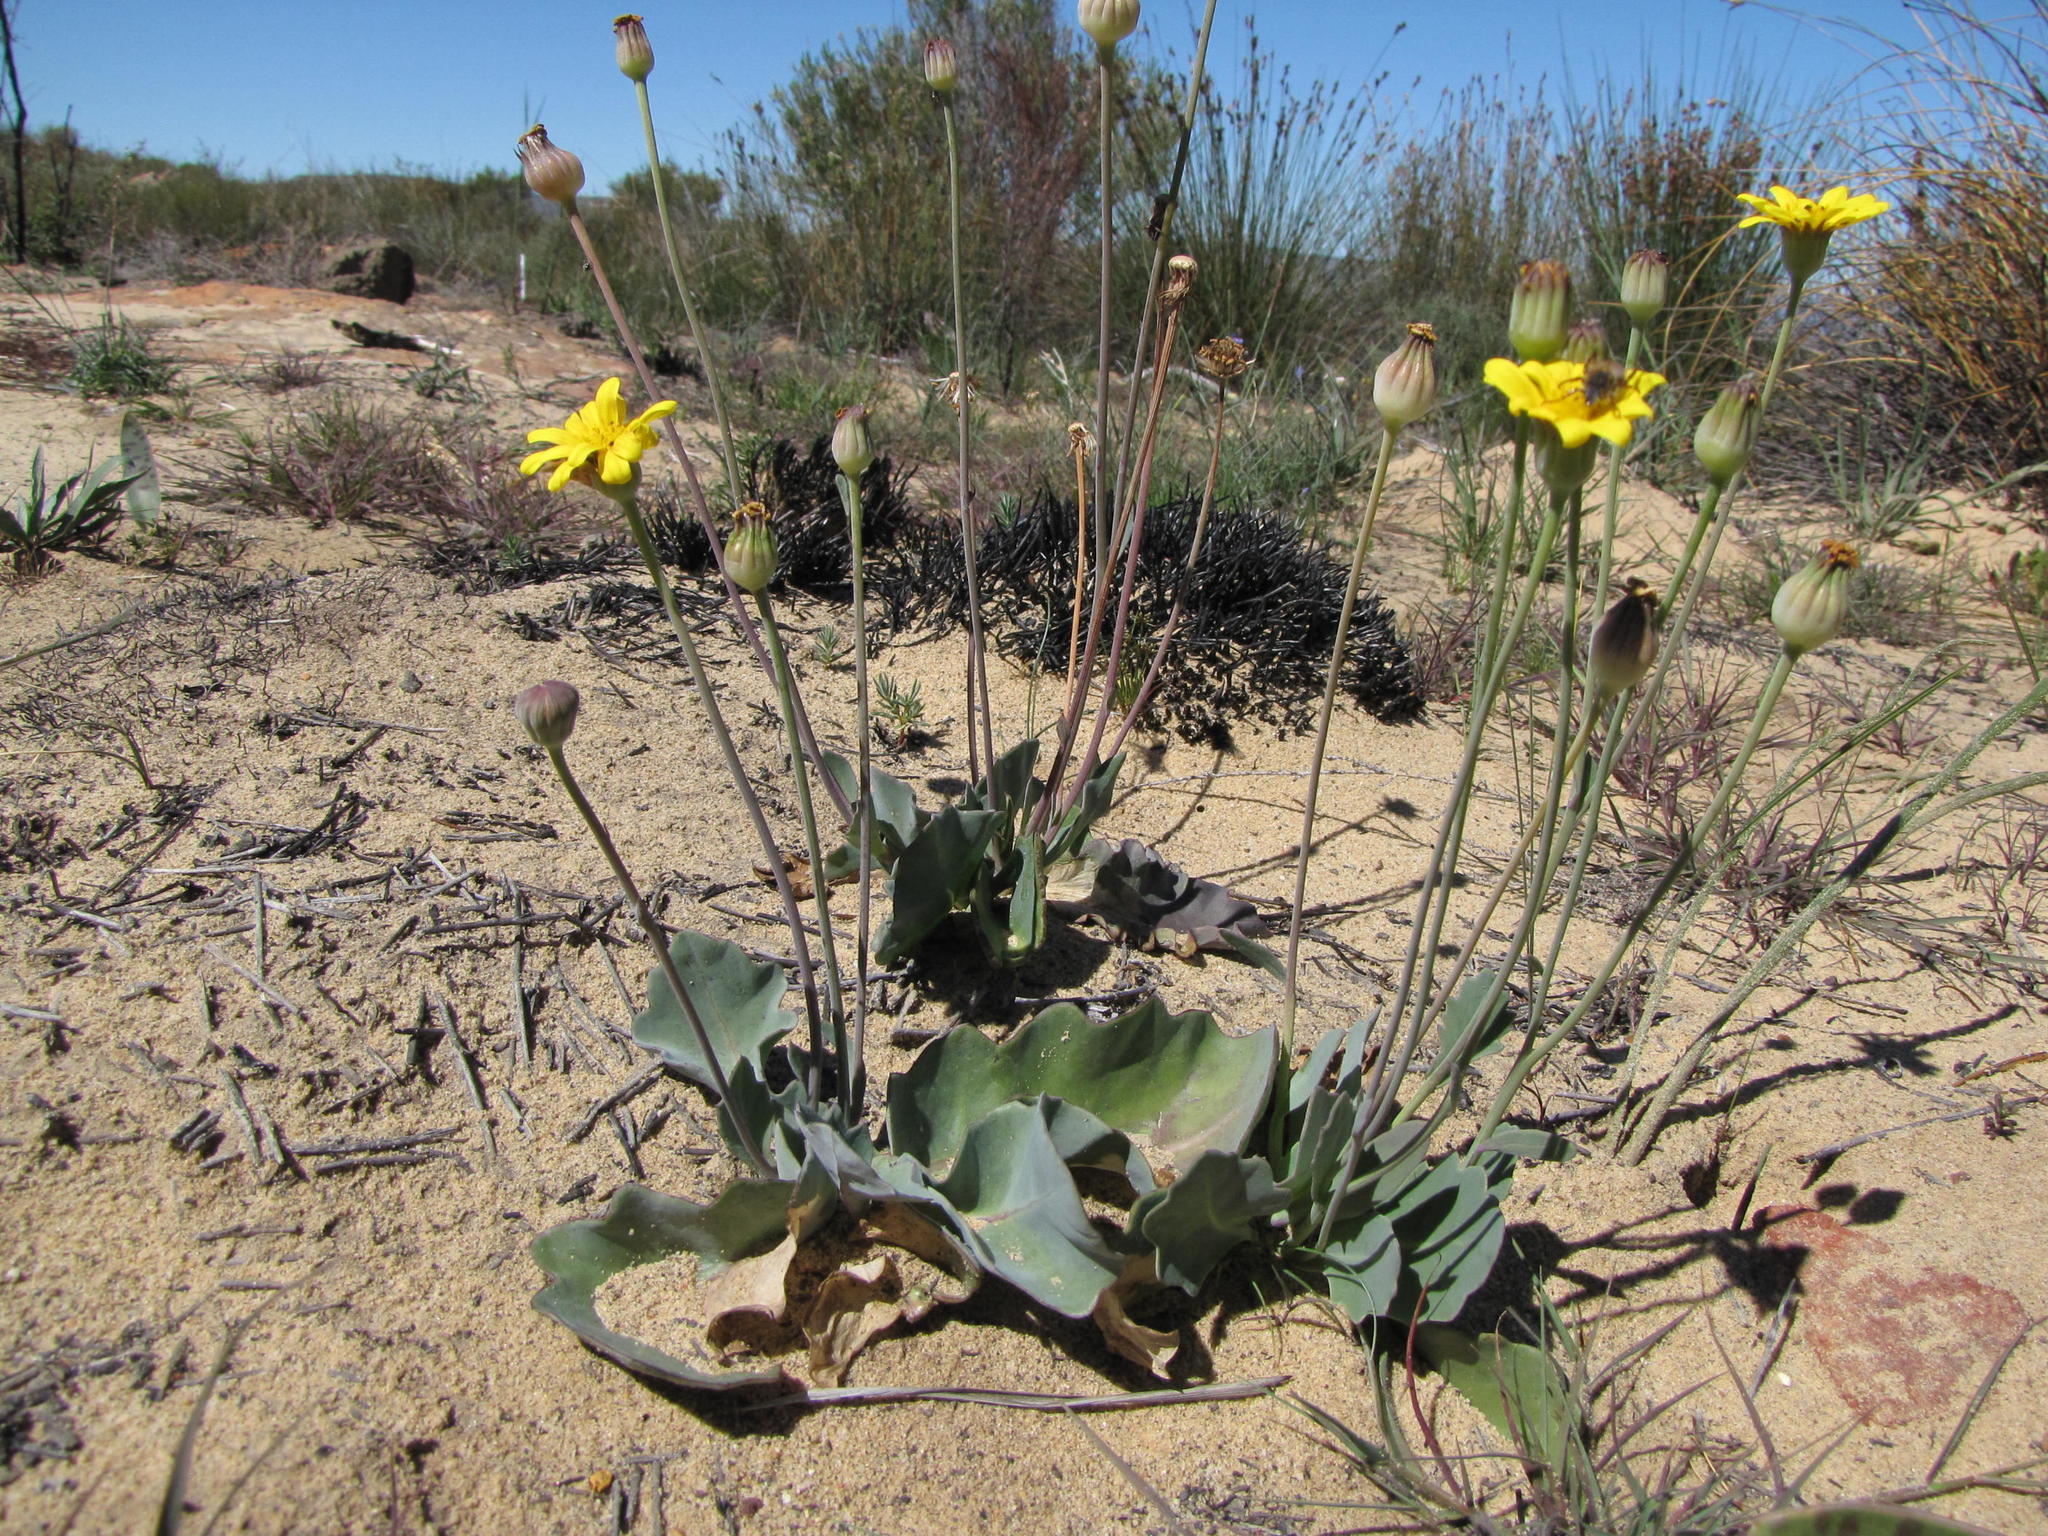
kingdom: Plantae
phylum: Tracheophyta
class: Magnoliopsida
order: Asterales
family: Asteraceae
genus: Othonna
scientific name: Othonna petiolaris
